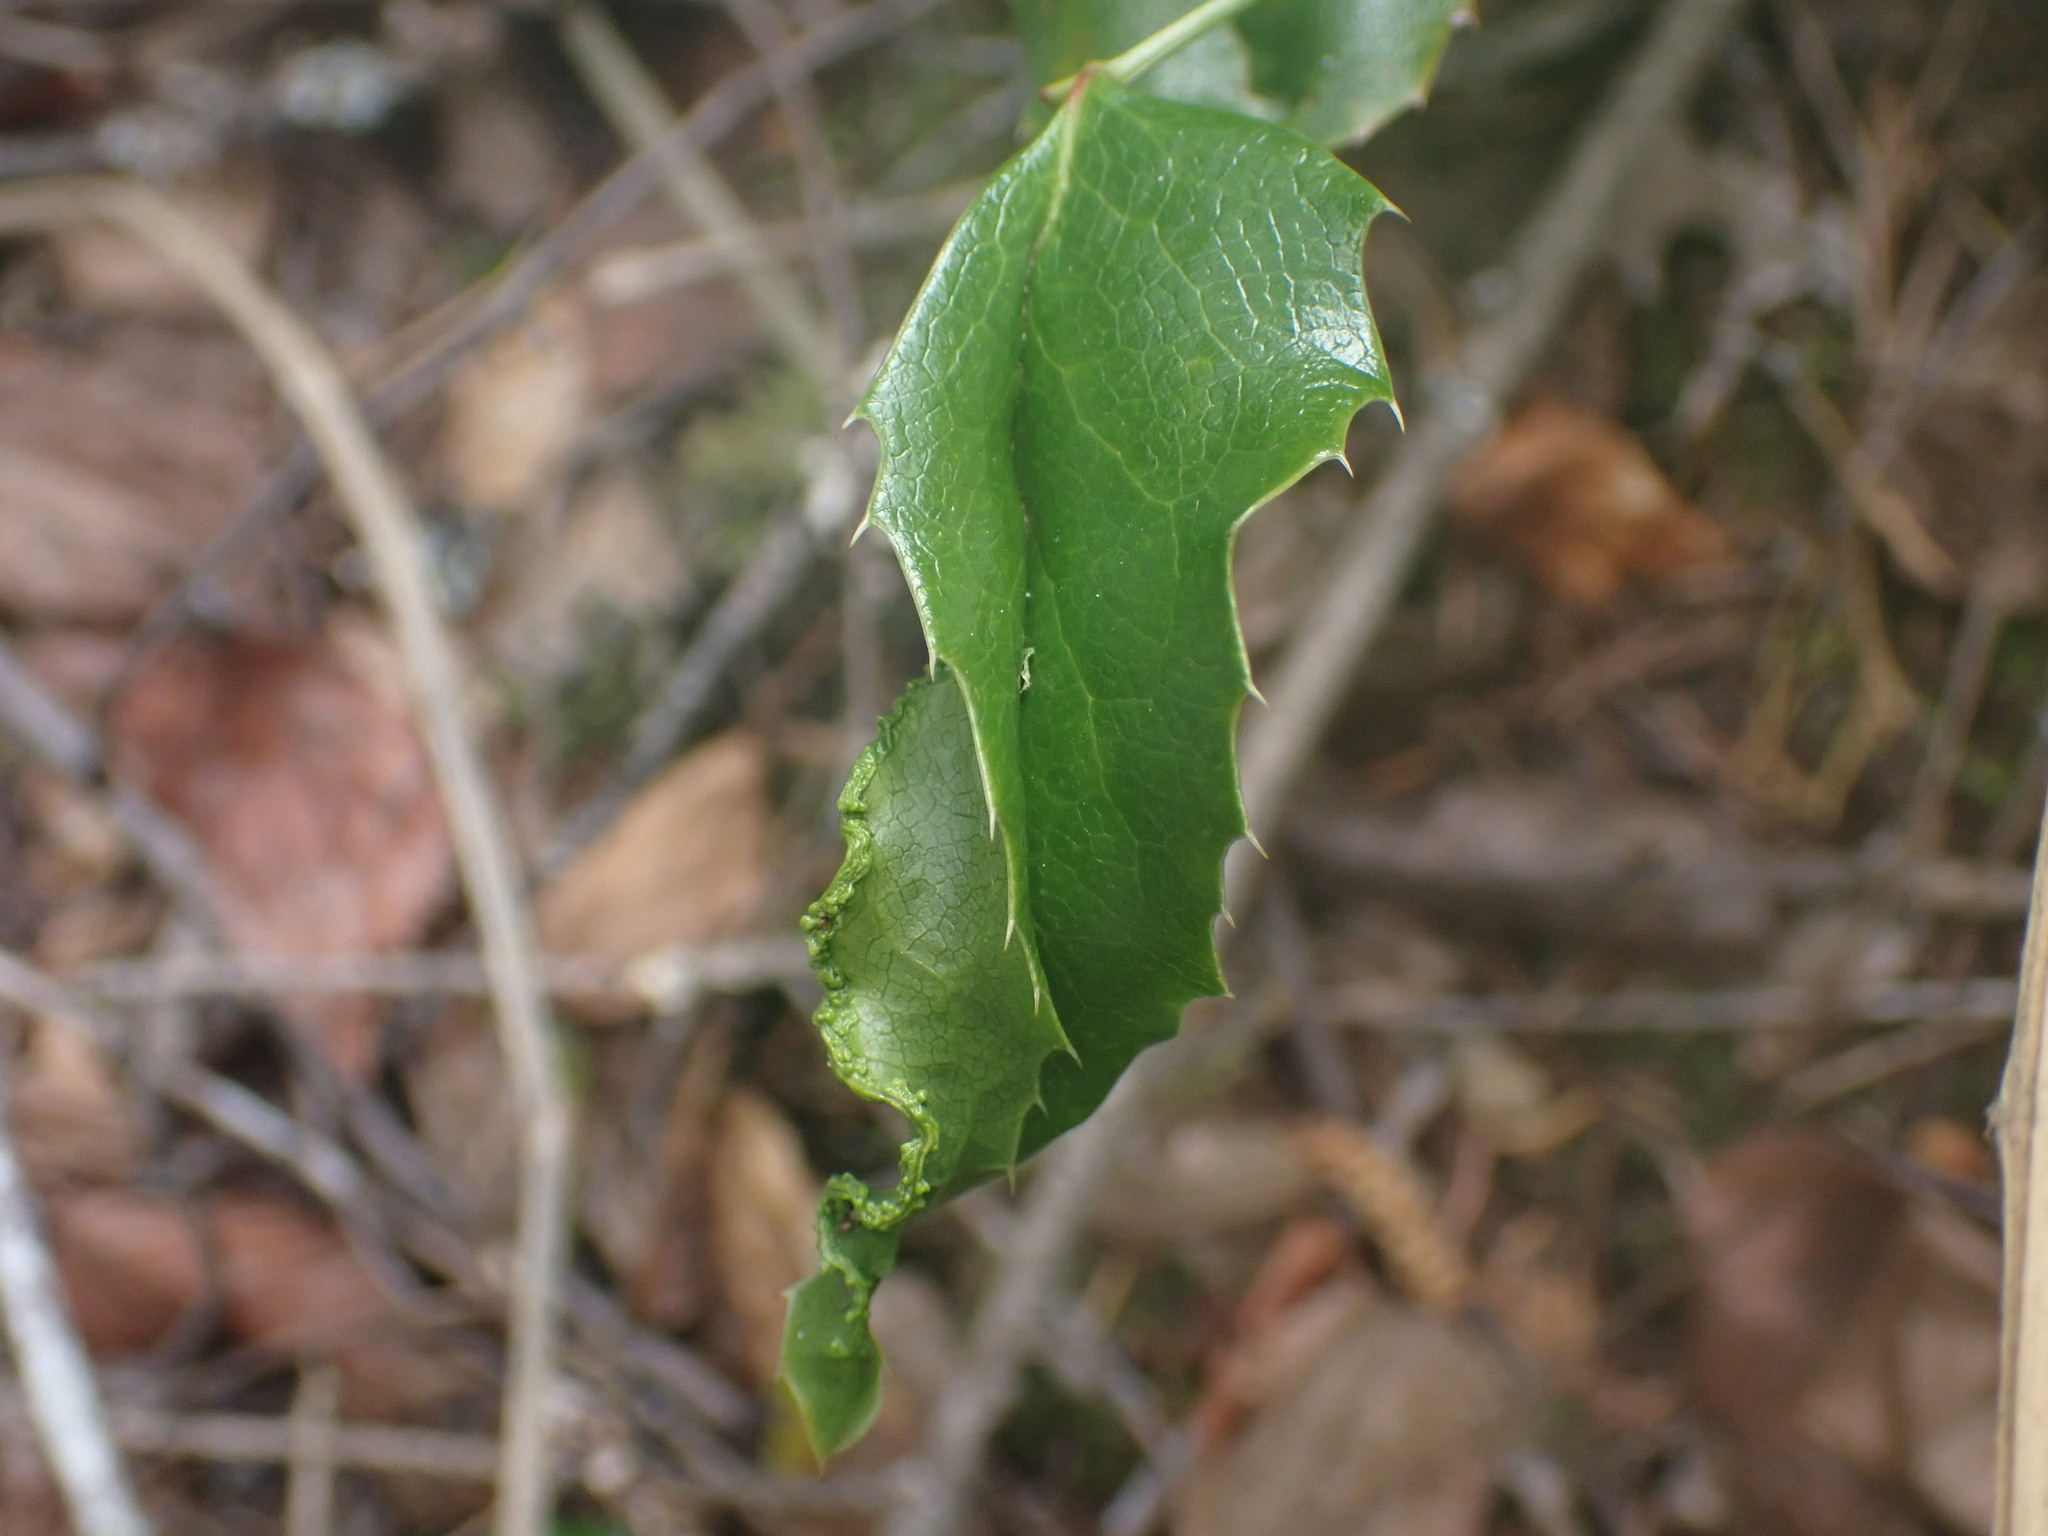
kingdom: Animalia
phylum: Arthropoda
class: Arachnida
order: Trombidiformes
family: Eriophyidae
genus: Aceria
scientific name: Aceria caliberberis
